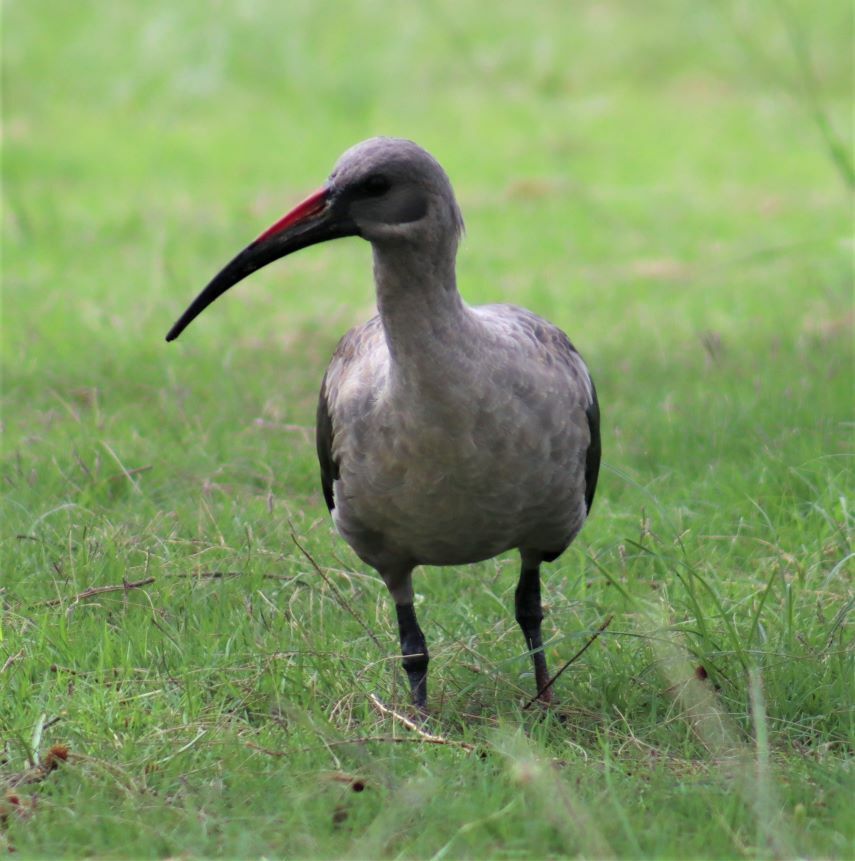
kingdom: Animalia
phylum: Chordata
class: Aves
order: Pelecaniformes
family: Threskiornithidae
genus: Bostrychia
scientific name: Bostrychia hagedash
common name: Hadada ibis
